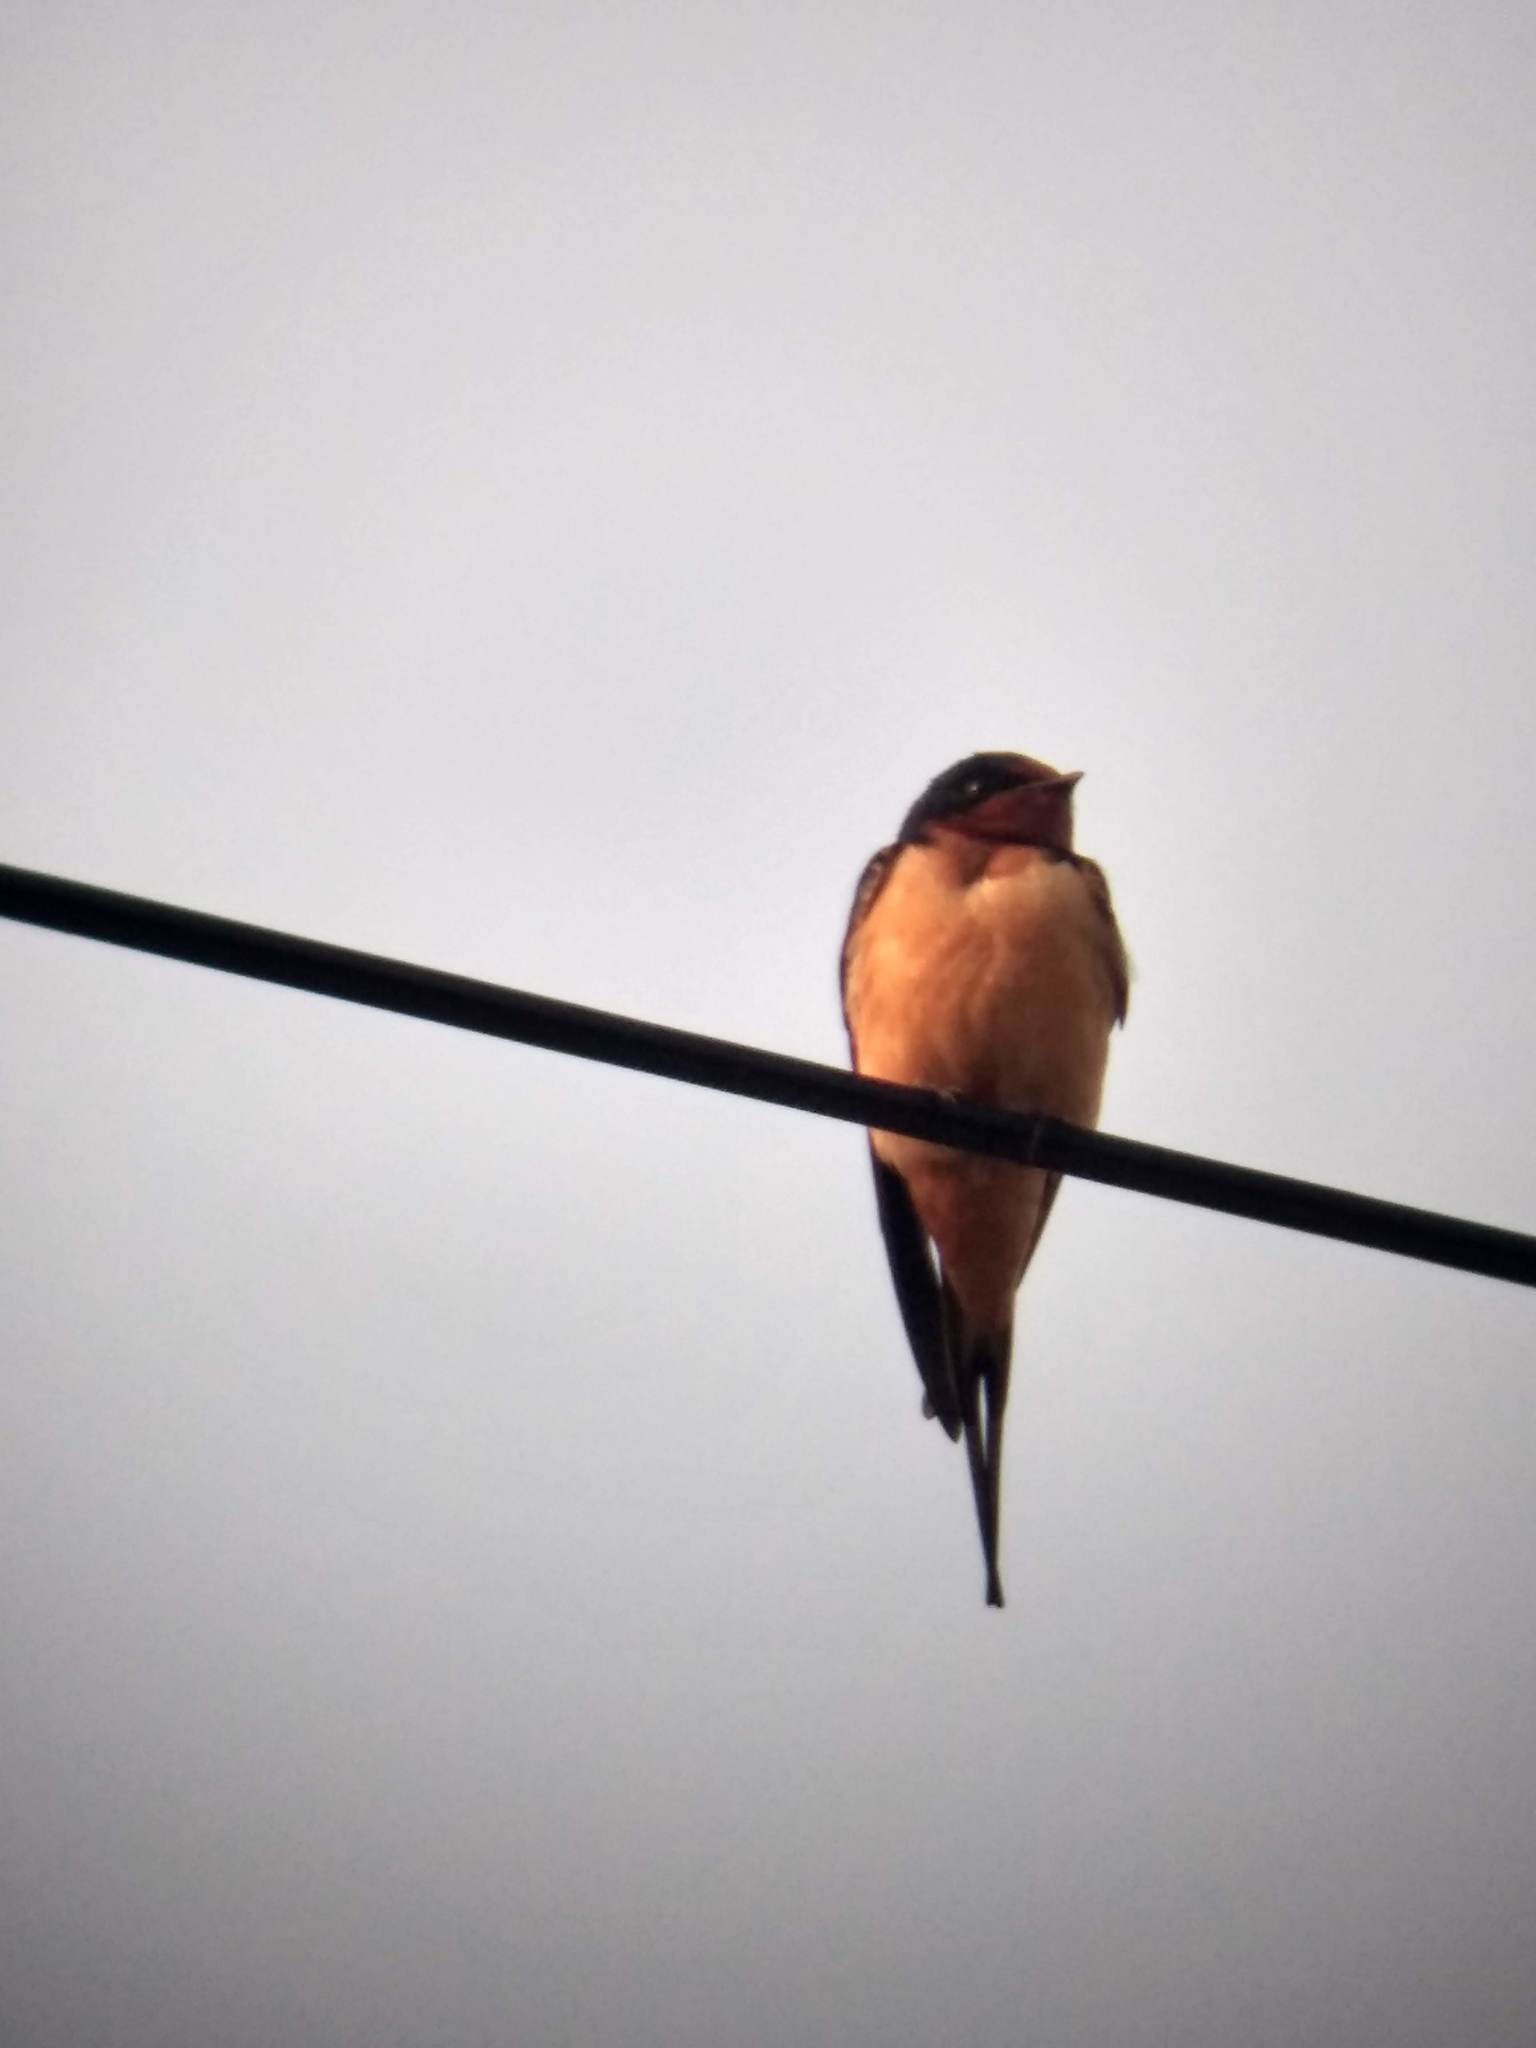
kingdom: Animalia
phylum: Chordata
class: Aves
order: Passeriformes
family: Hirundinidae
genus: Hirundo
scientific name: Hirundo rustica
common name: Barn swallow
